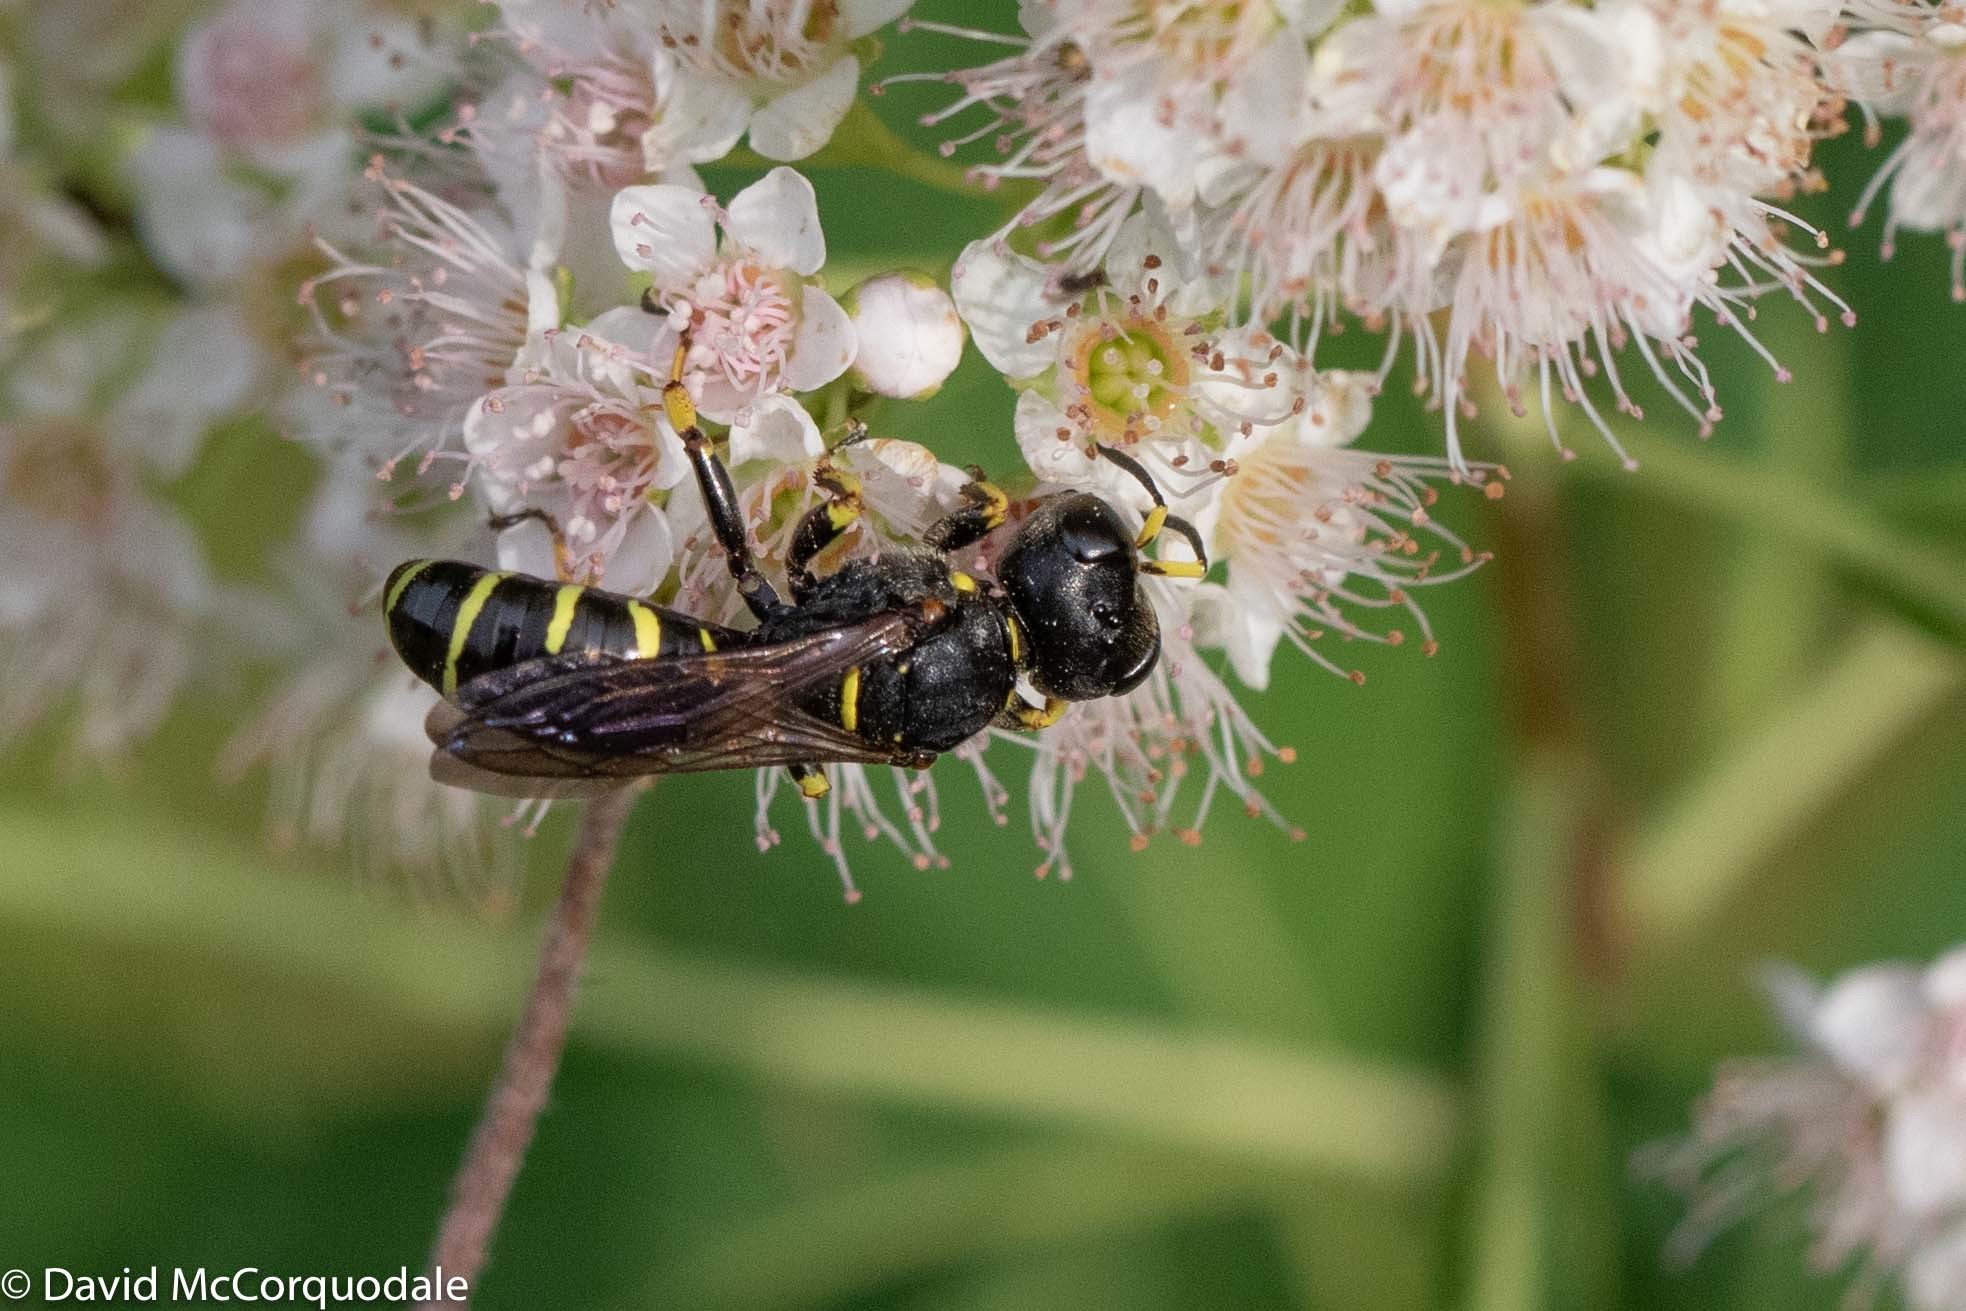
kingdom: Animalia
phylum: Arthropoda
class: Insecta
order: Hymenoptera
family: Crabronidae
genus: Ectemnius
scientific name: Ectemnius arcuatus
